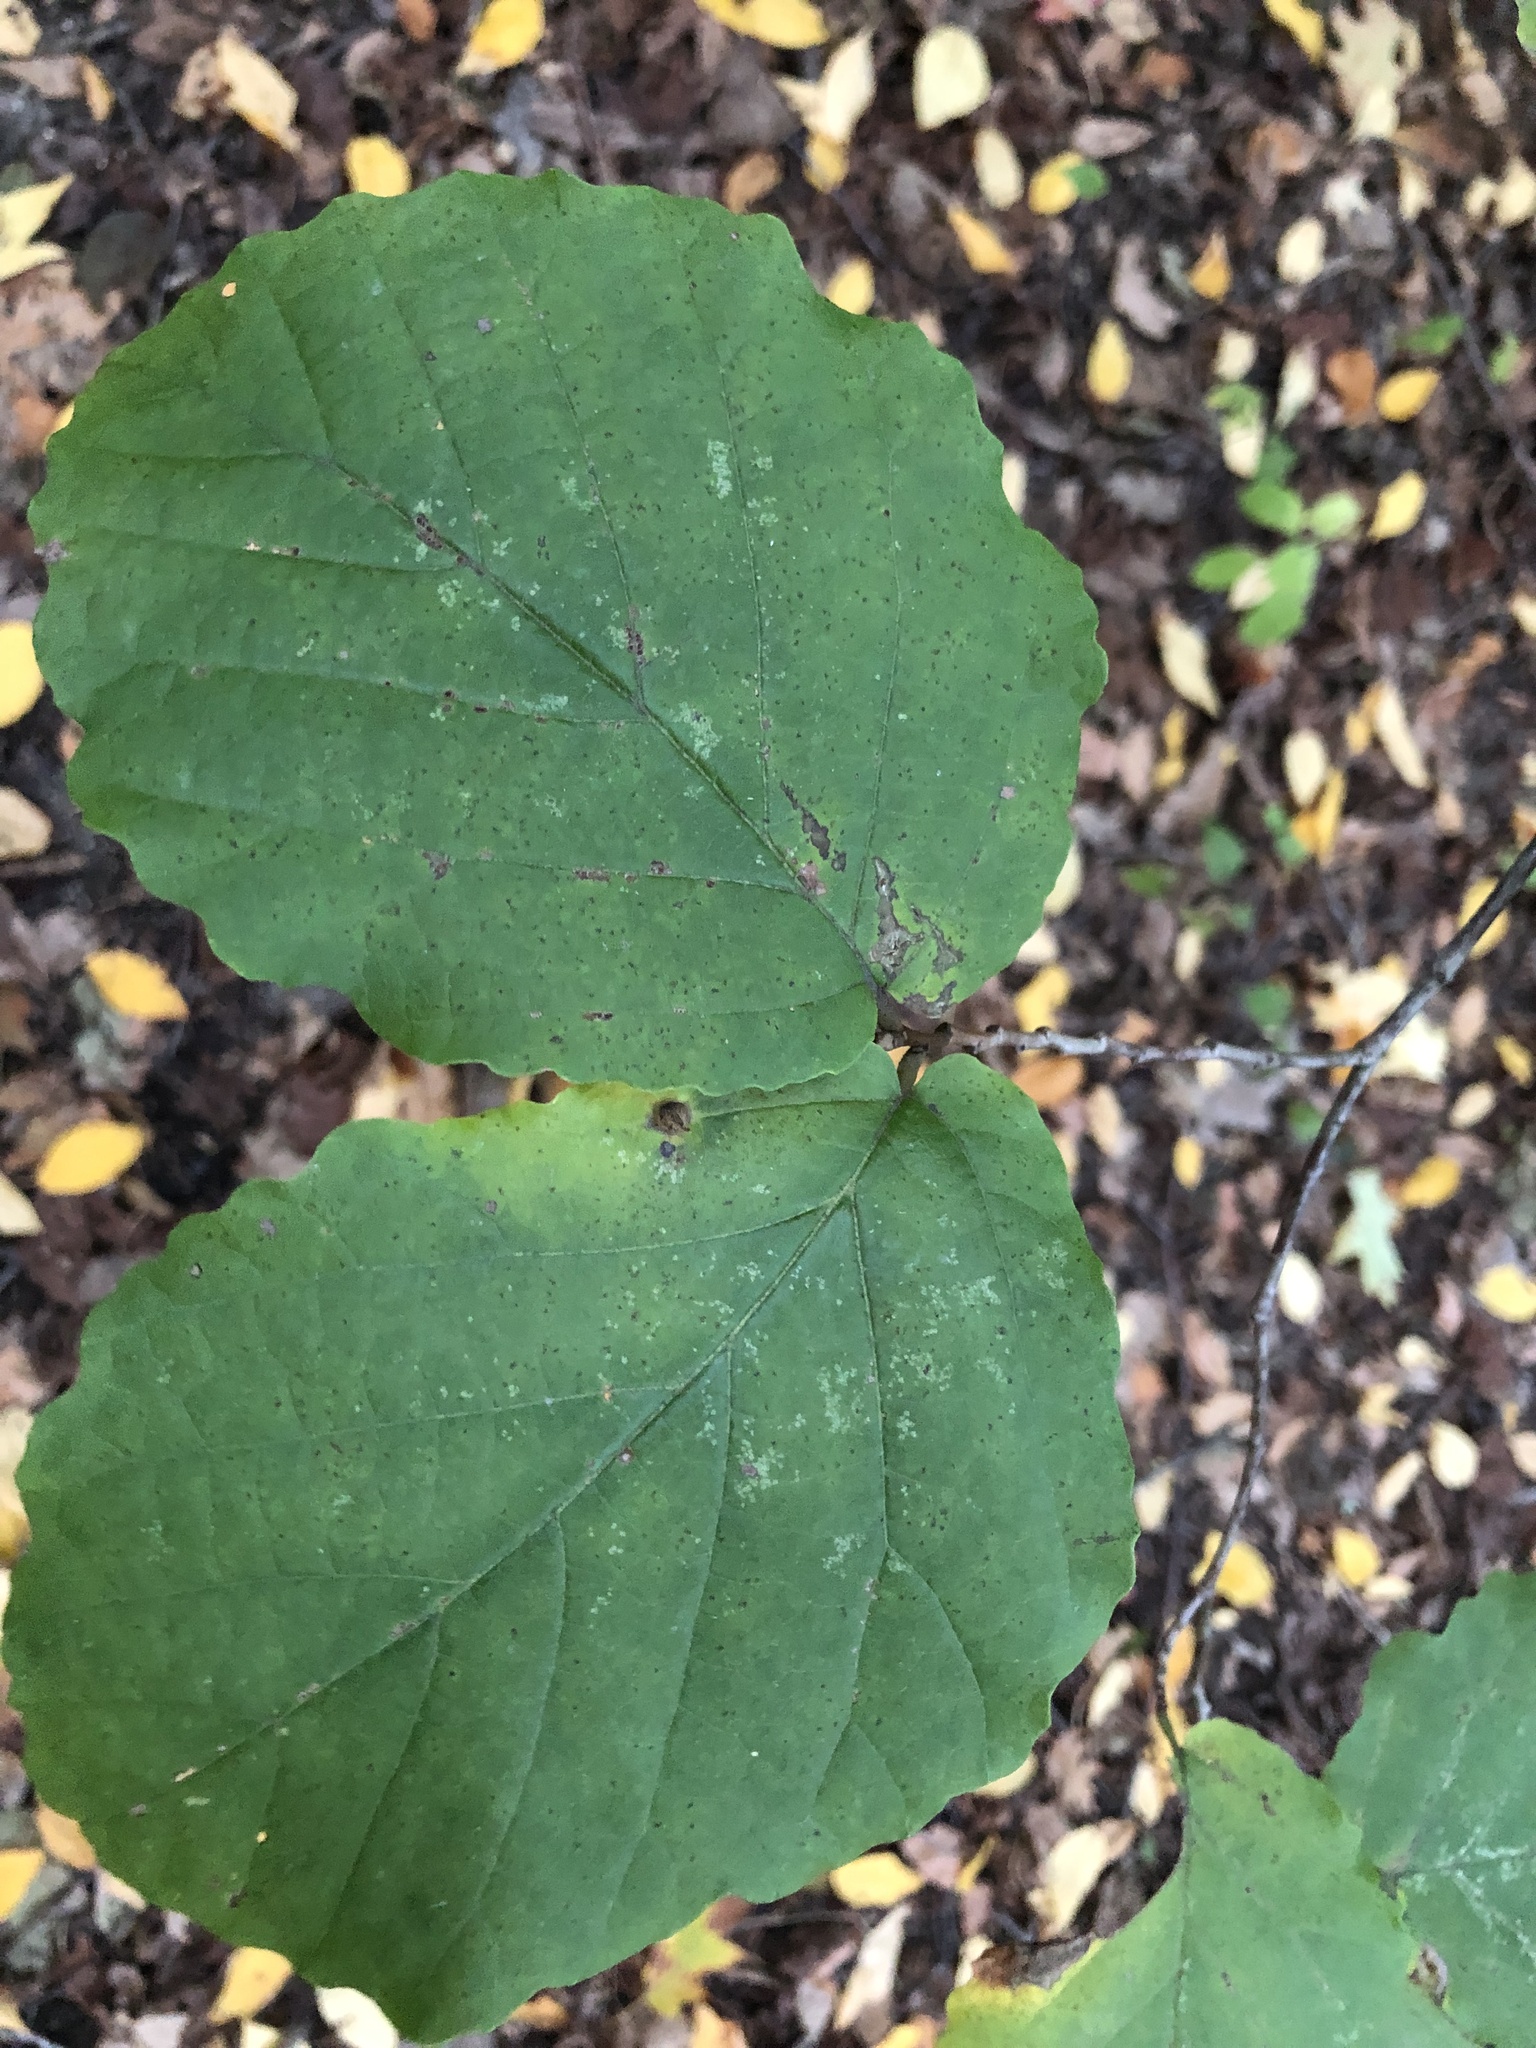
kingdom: Animalia
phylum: Arthropoda
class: Insecta
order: Hemiptera
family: Aphididae
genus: Hormaphis
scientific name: Hormaphis hamamelidis
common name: Witch-hazel cone gall aphid
